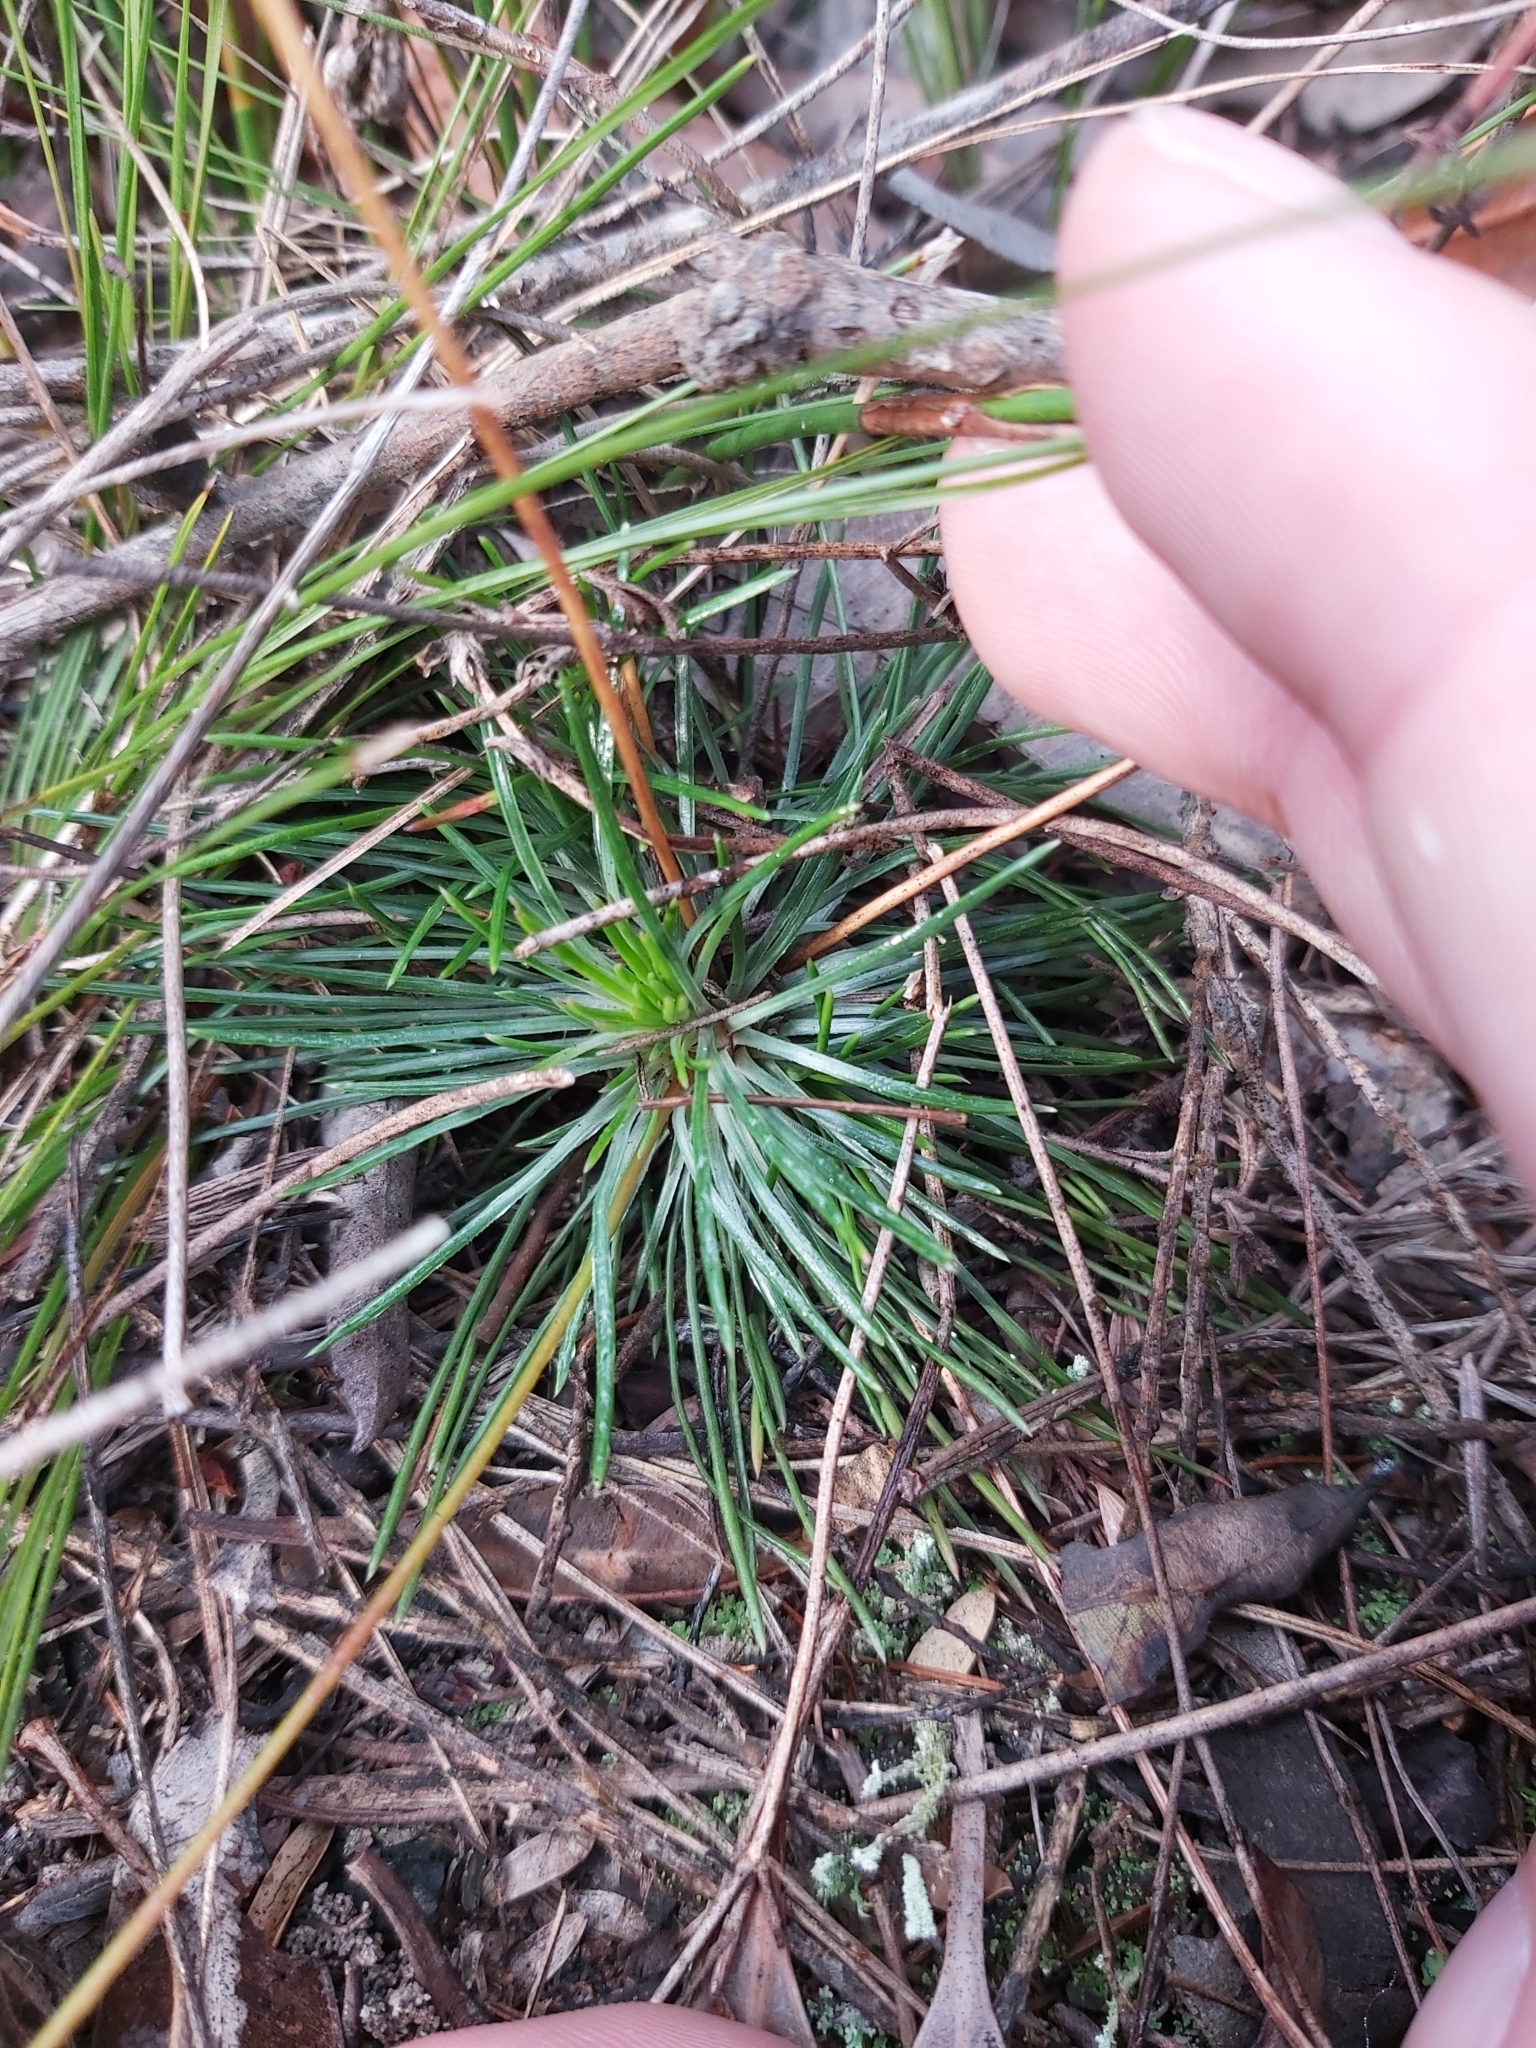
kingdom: Plantae
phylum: Tracheophyta
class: Magnoliopsida
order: Asterales
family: Stylidiaceae
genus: Stylidium
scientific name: Stylidium lineare
